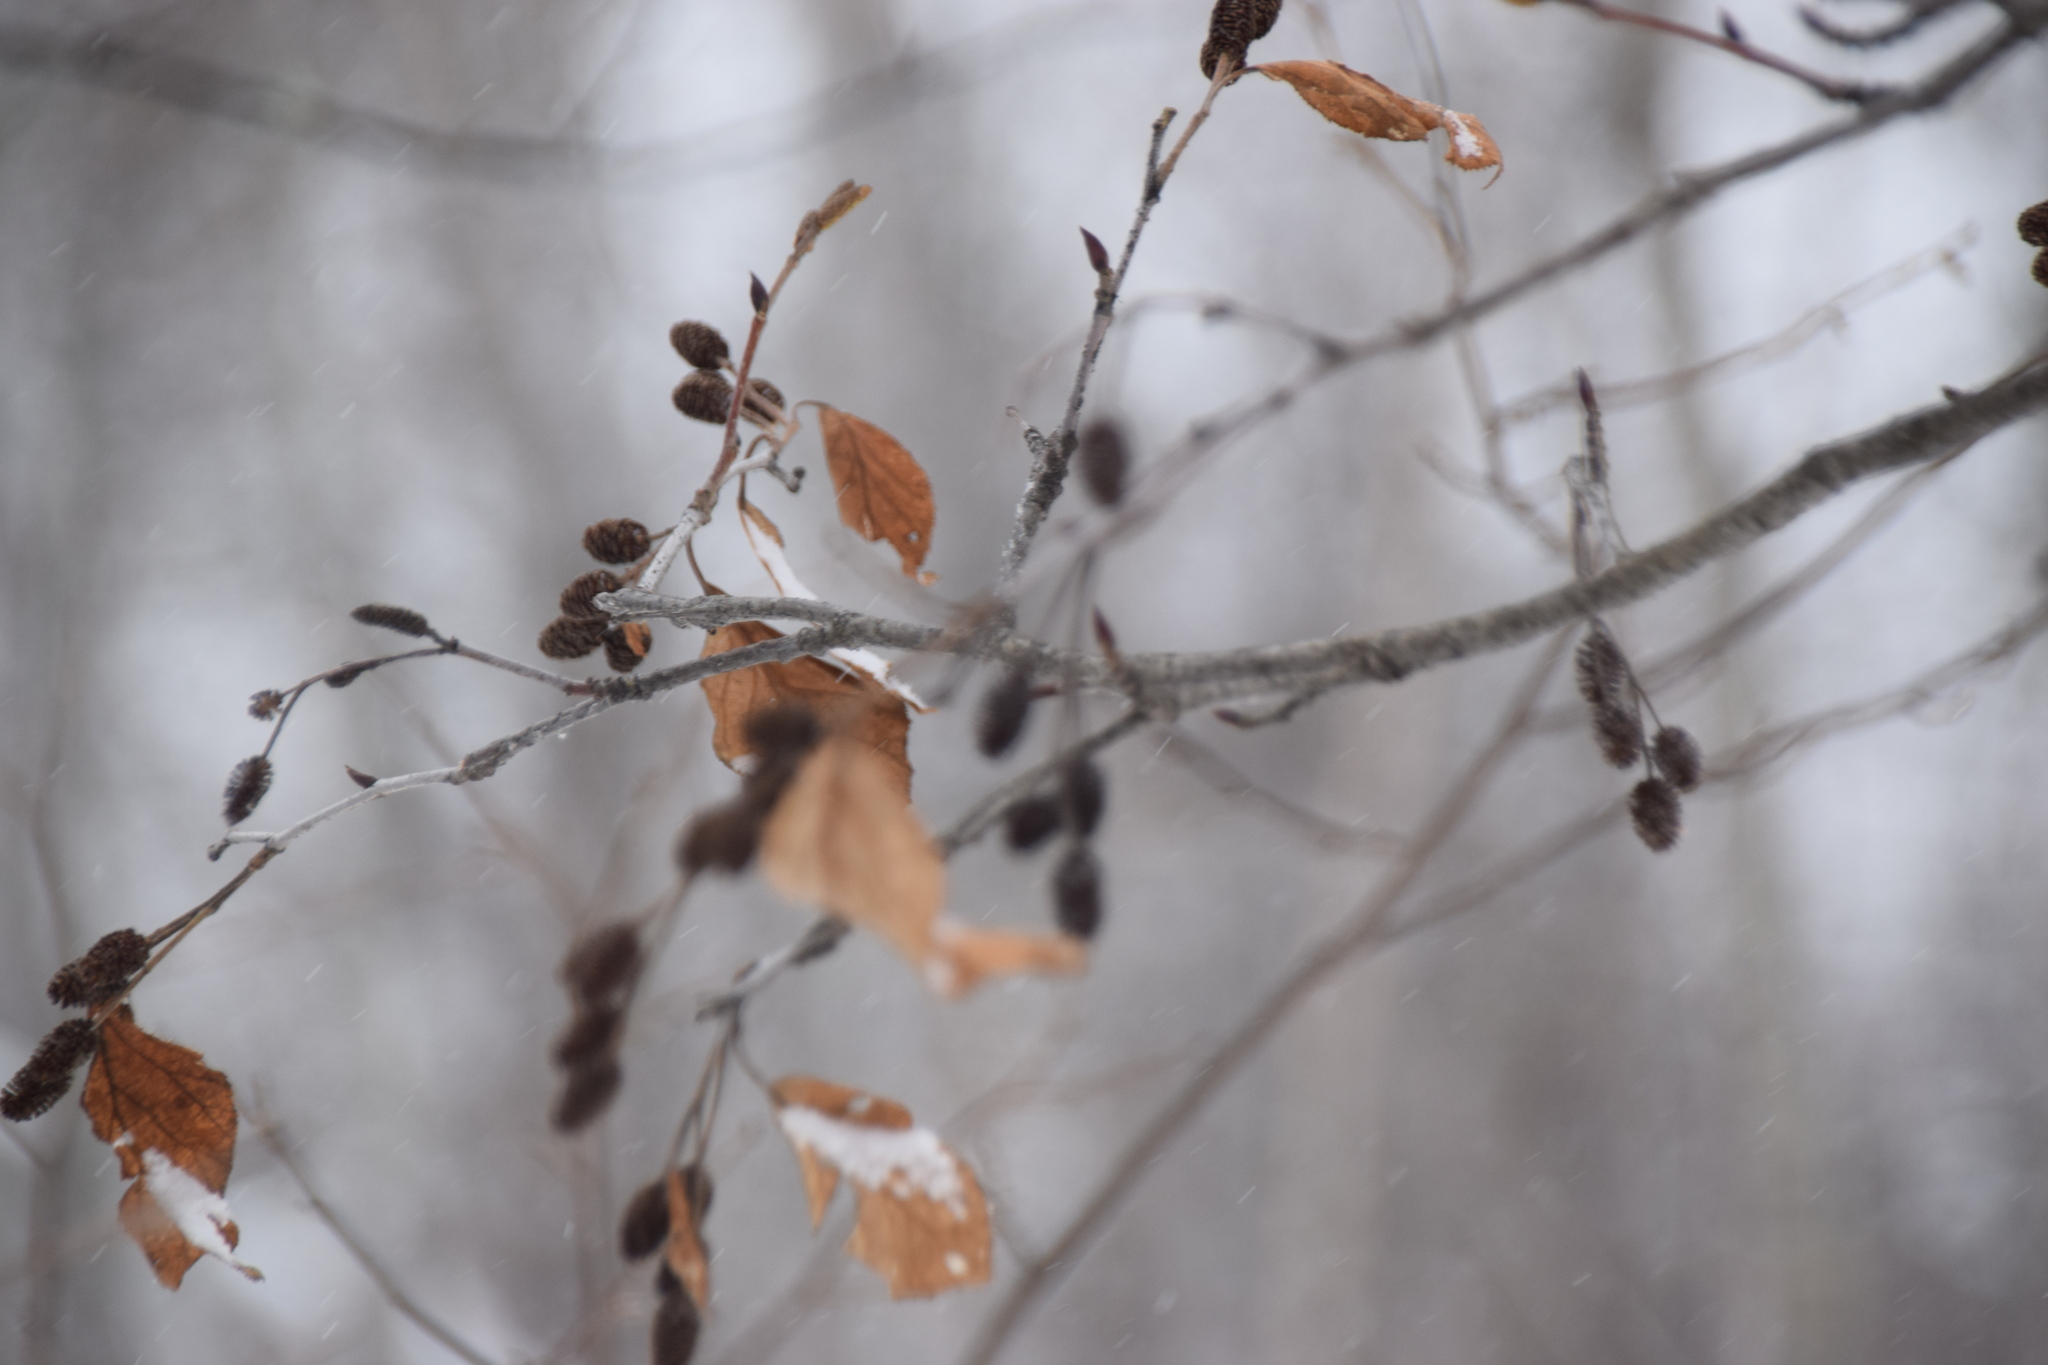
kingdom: Plantae
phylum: Tracheophyta
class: Magnoliopsida
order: Fagales
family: Betulaceae
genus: Alnus
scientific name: Alnus alnobetula
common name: Green alder
